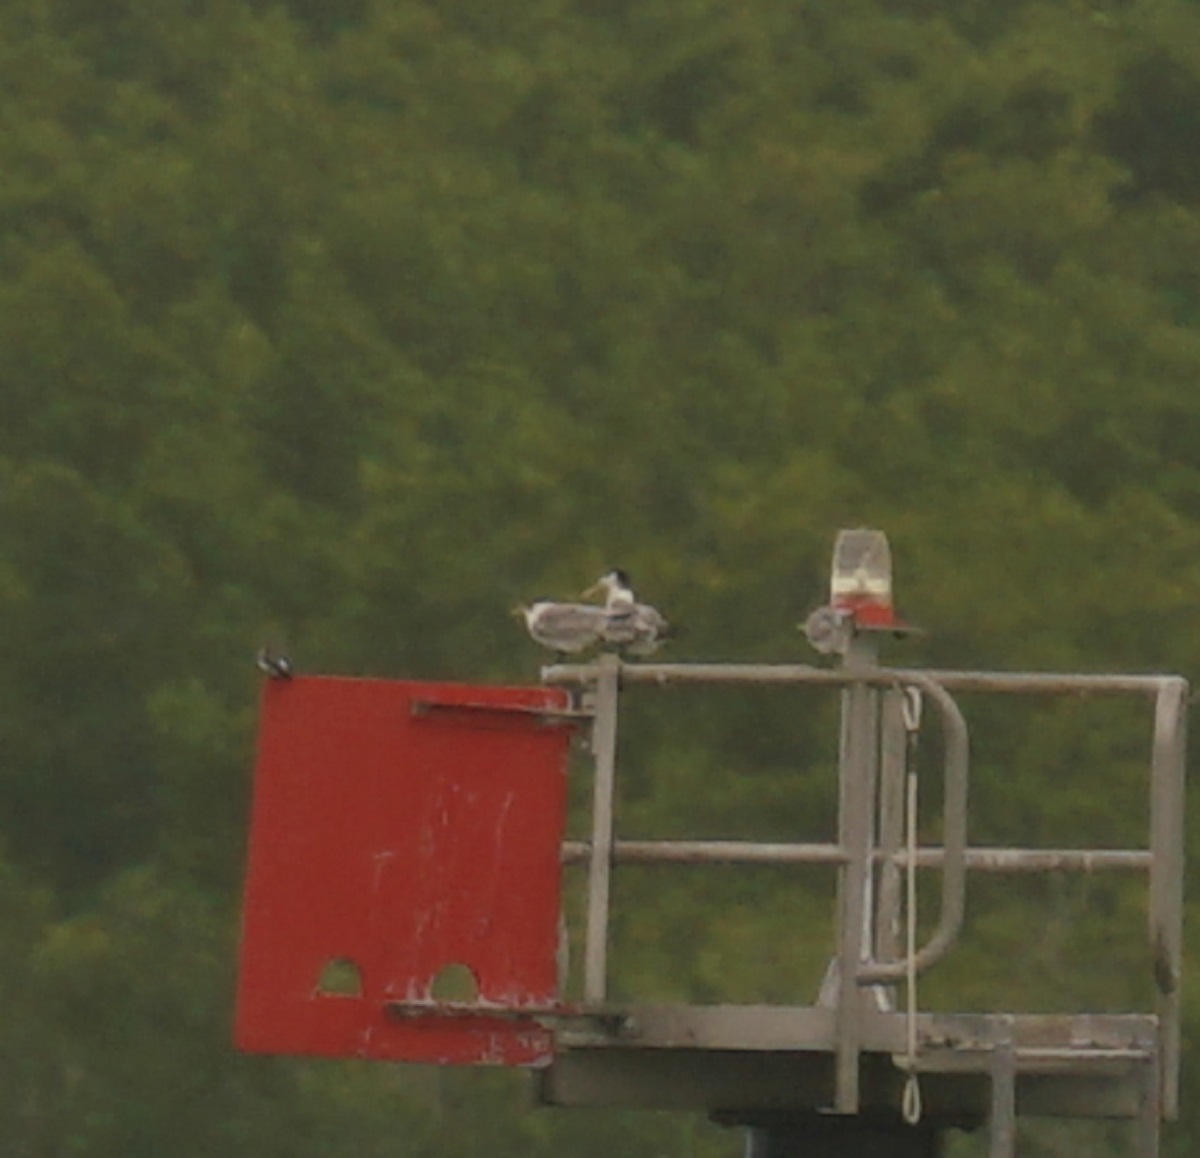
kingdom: Animalia
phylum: Chordata
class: Aves
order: Charadriiformes
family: Laridae
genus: Thalasseus
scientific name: Thalasseus bergii
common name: Greater crested tern
